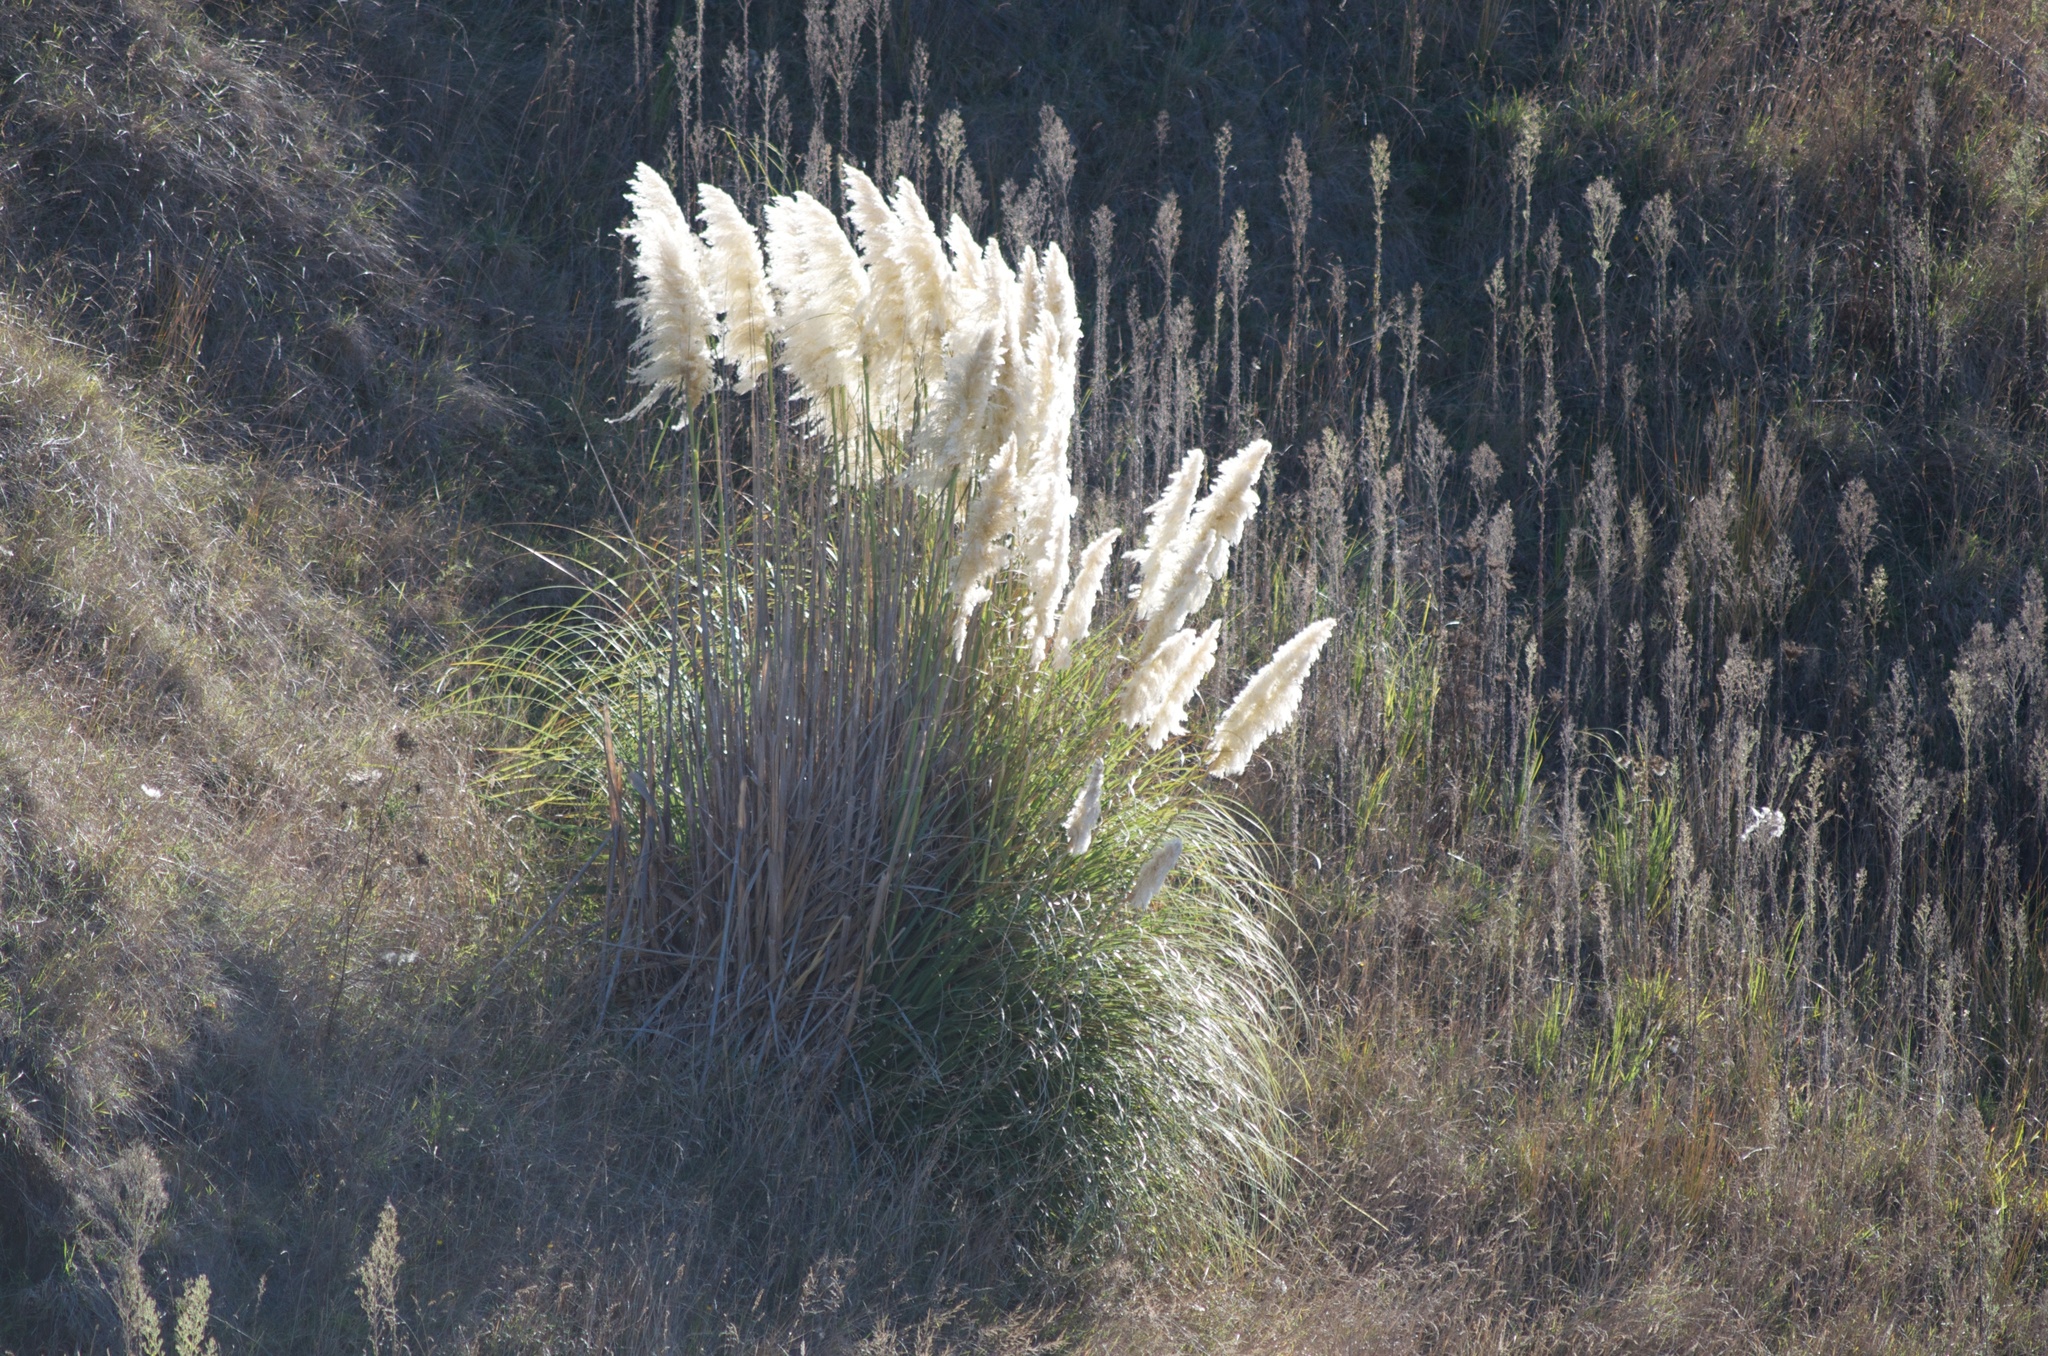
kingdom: Plantae
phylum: Tracheophyta
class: Liliopsida
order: Poales
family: Poaceae
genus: Cortaderia
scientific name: Cortaderia selloana
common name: Uruguayan pampas grass
